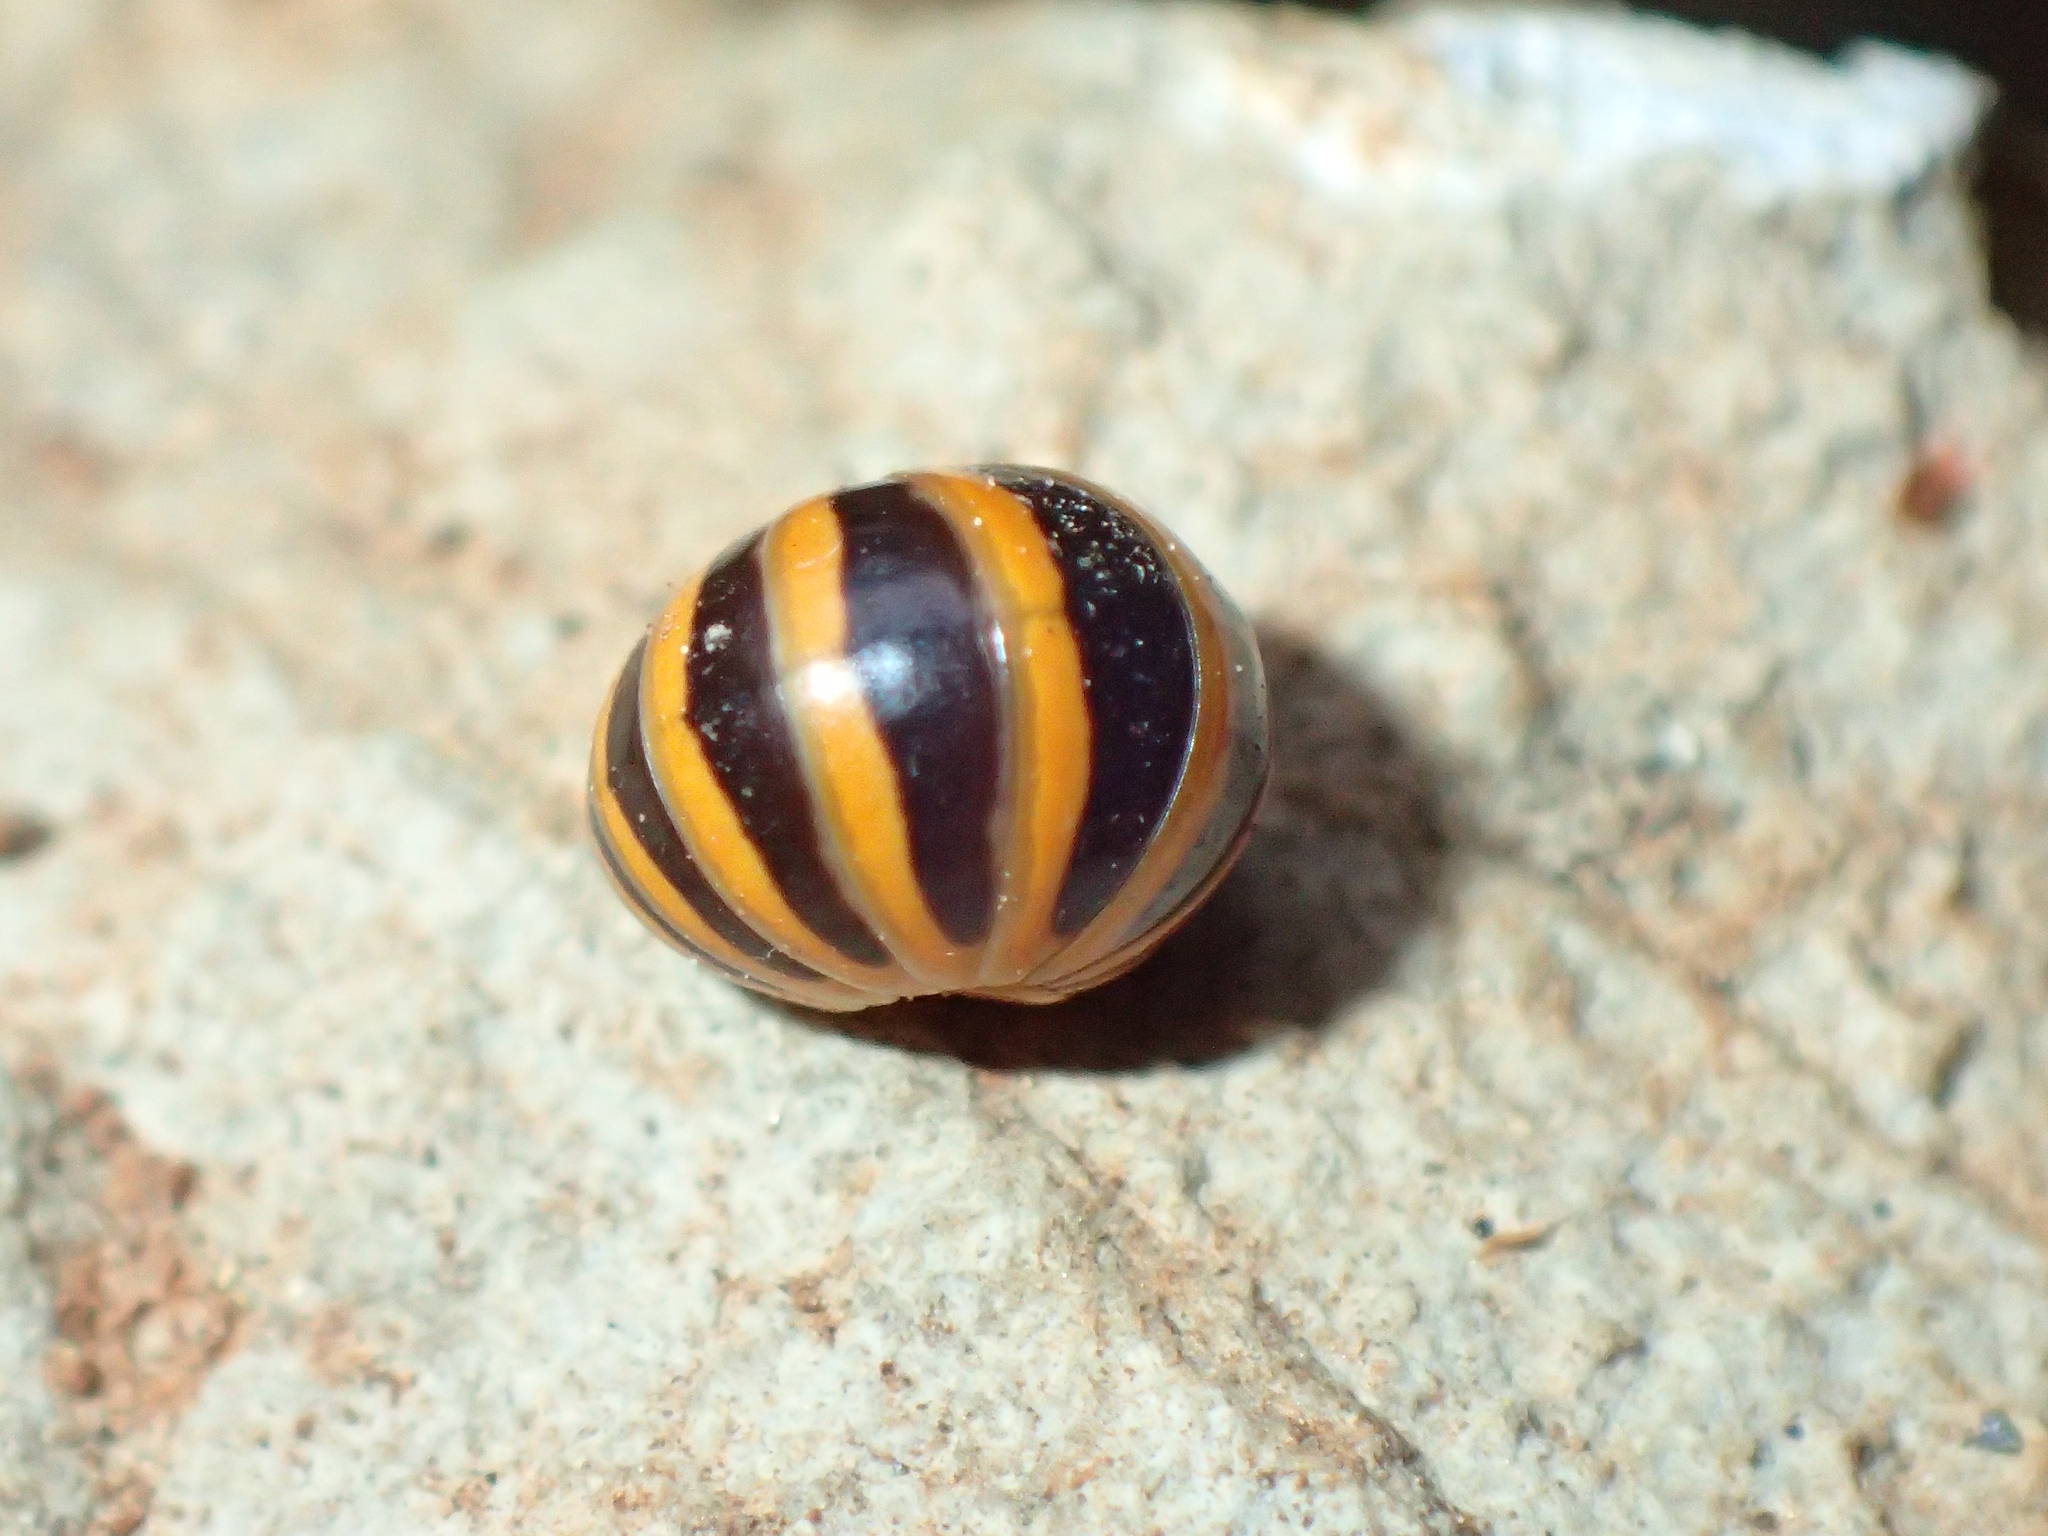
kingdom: Animalia
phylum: Arthropoda
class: Diplopoda
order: Glomerida
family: Glomeridae
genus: Glomeris
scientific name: Glomeris annulata
